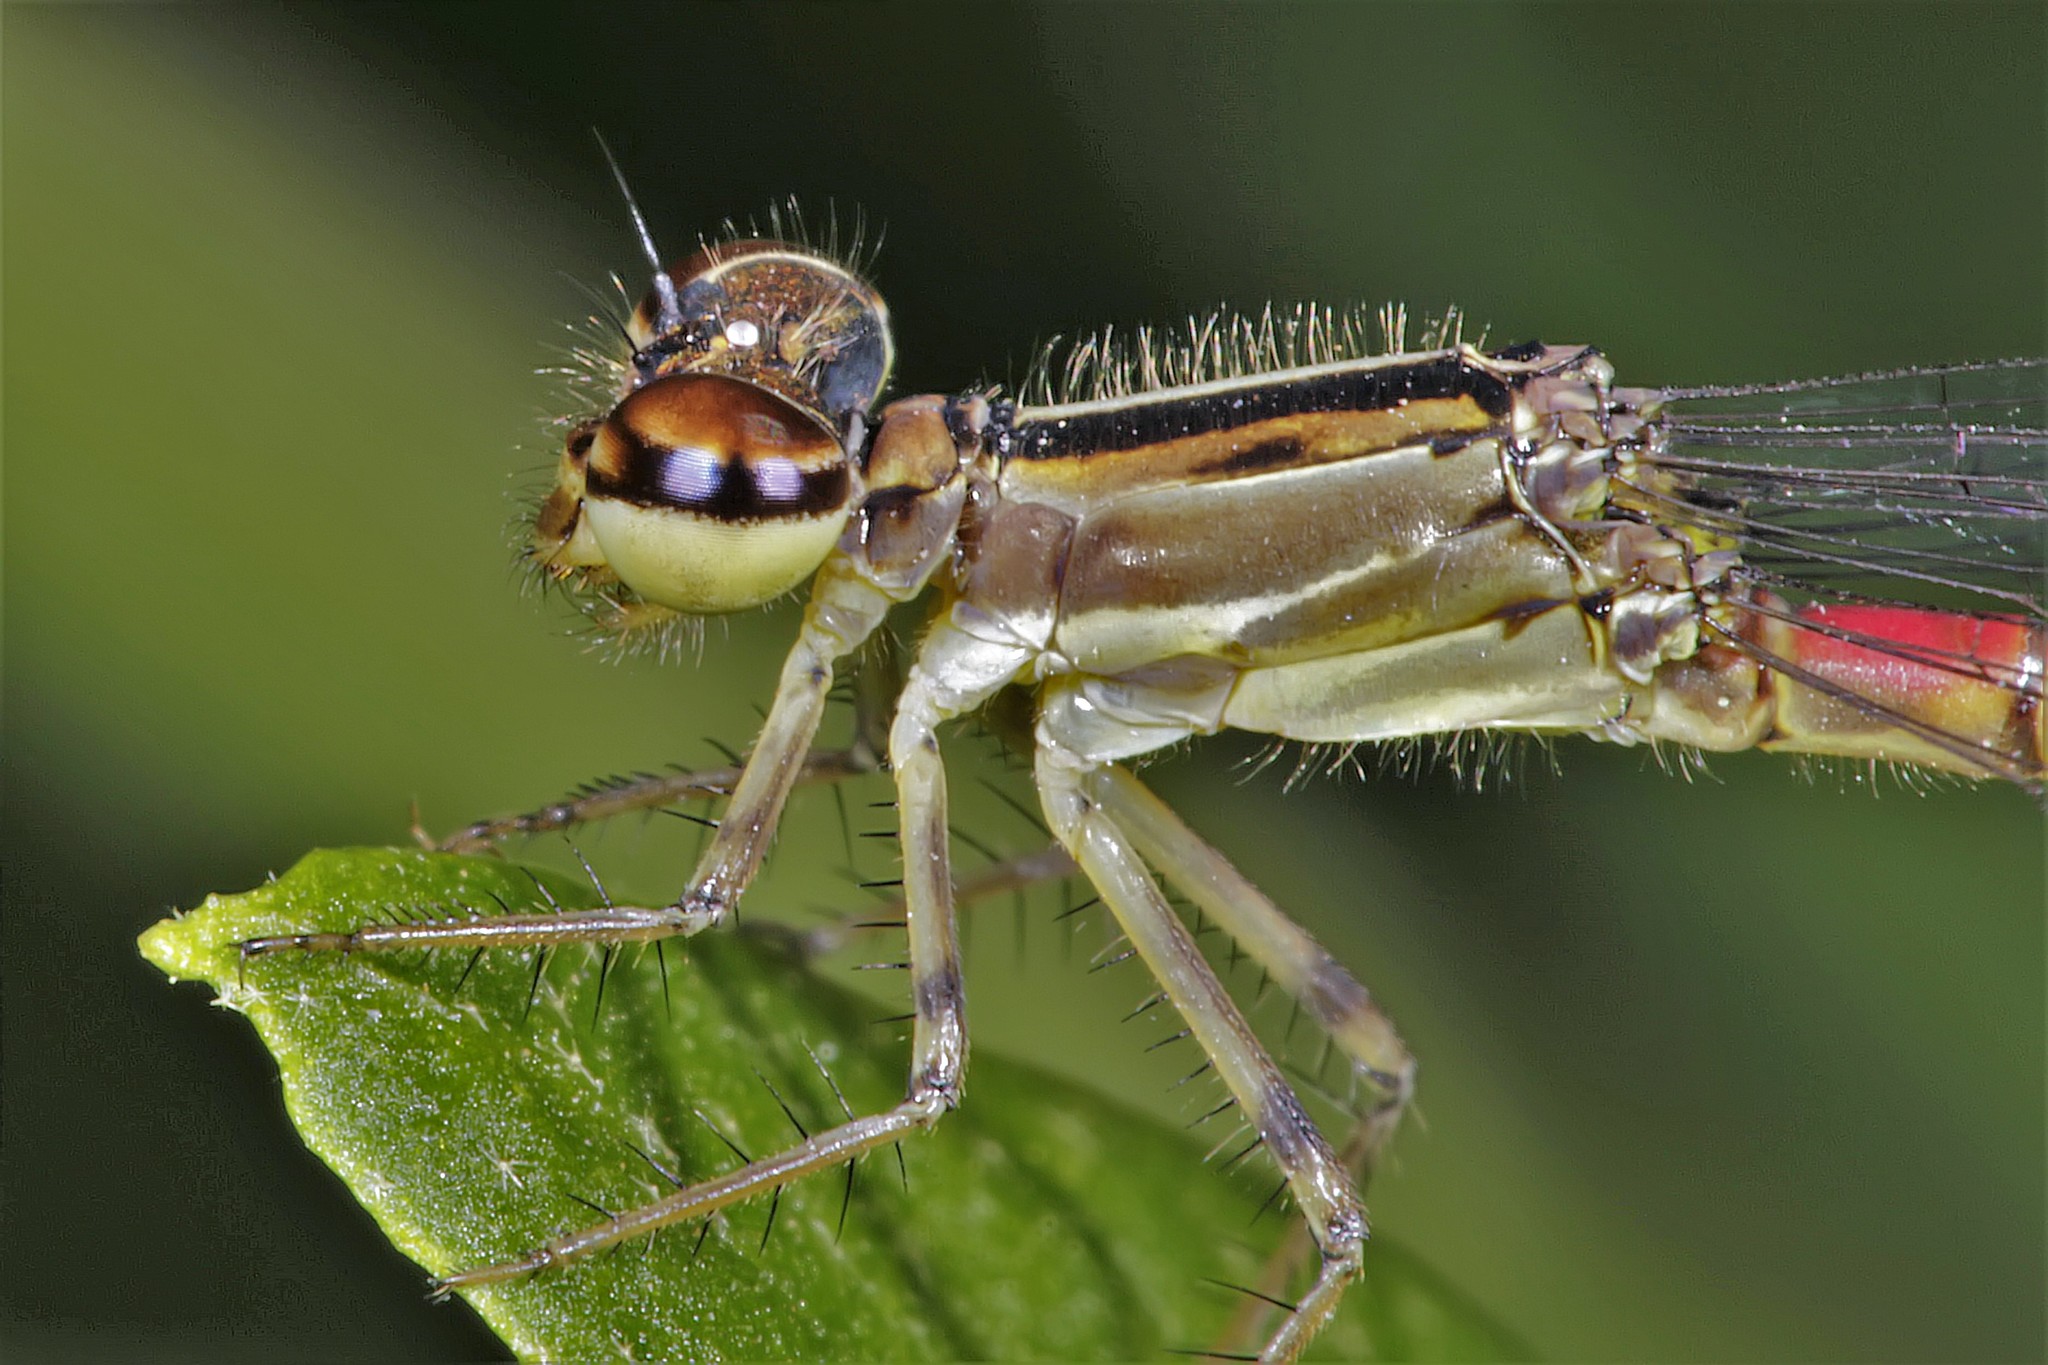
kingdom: Animalia
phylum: Arthropoda
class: Insecta
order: Odonata
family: Coenagrionidae
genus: Telebasis
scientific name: Telebasis willinki
